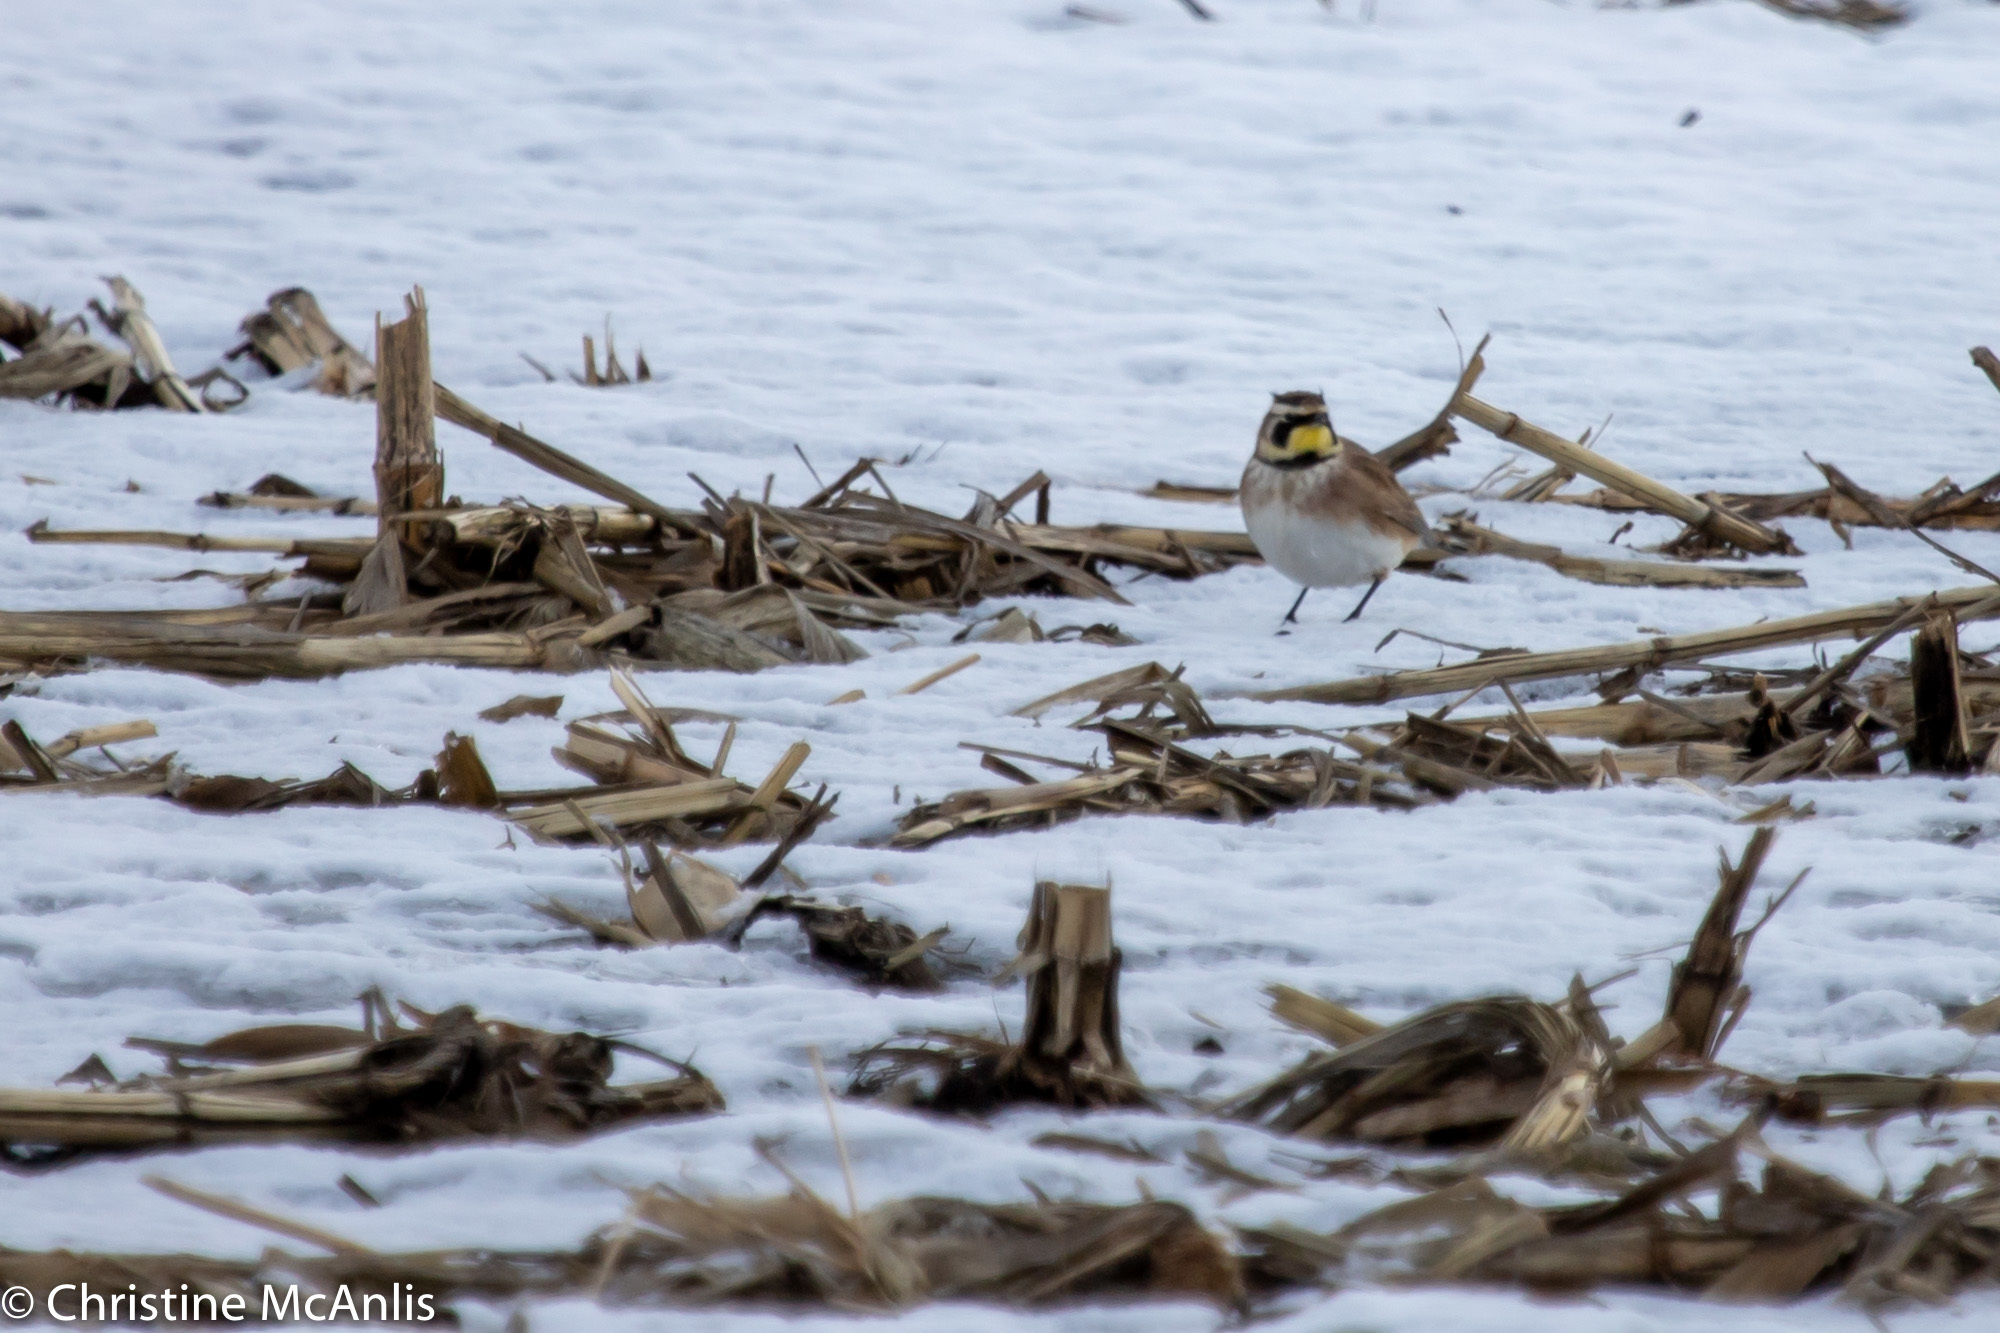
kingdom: Animalia
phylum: Chordata
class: Aves
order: Passeriformes
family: Alaudidae
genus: Eremophila
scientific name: Eremophila alpestris
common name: Horned lark
